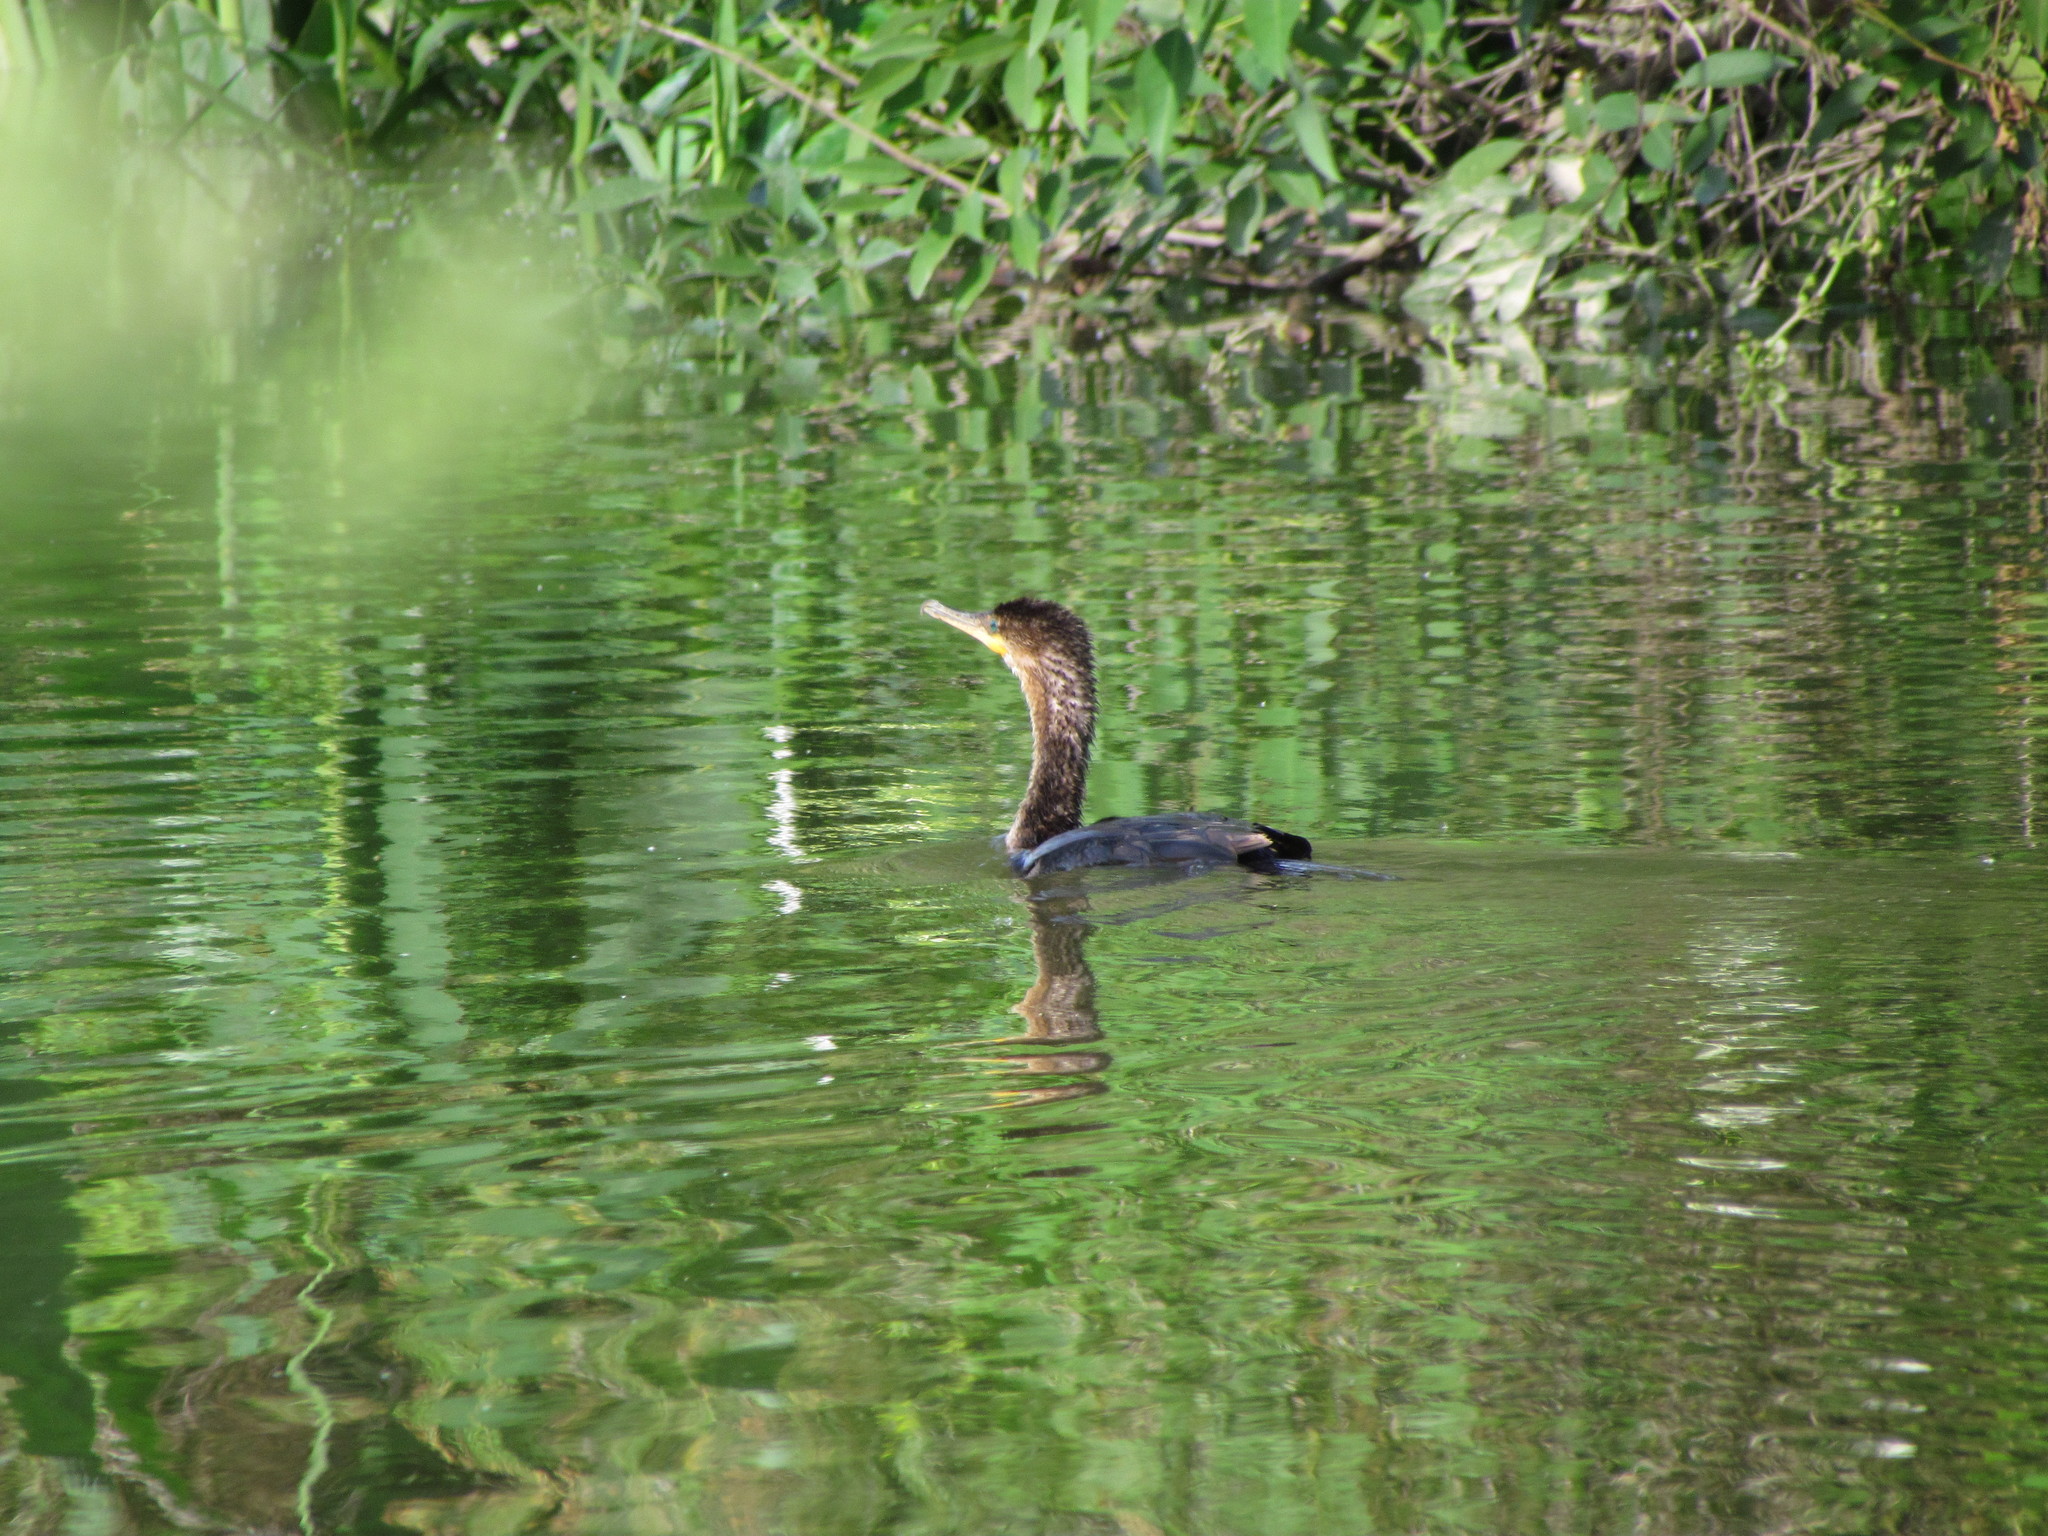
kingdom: Animalia
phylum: Chordata
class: Aves
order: Suliformes
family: Phalacrocoracidae
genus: Phalacrocorax
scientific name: Phalacrocorax brasilianus
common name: Neotropic cormorant
